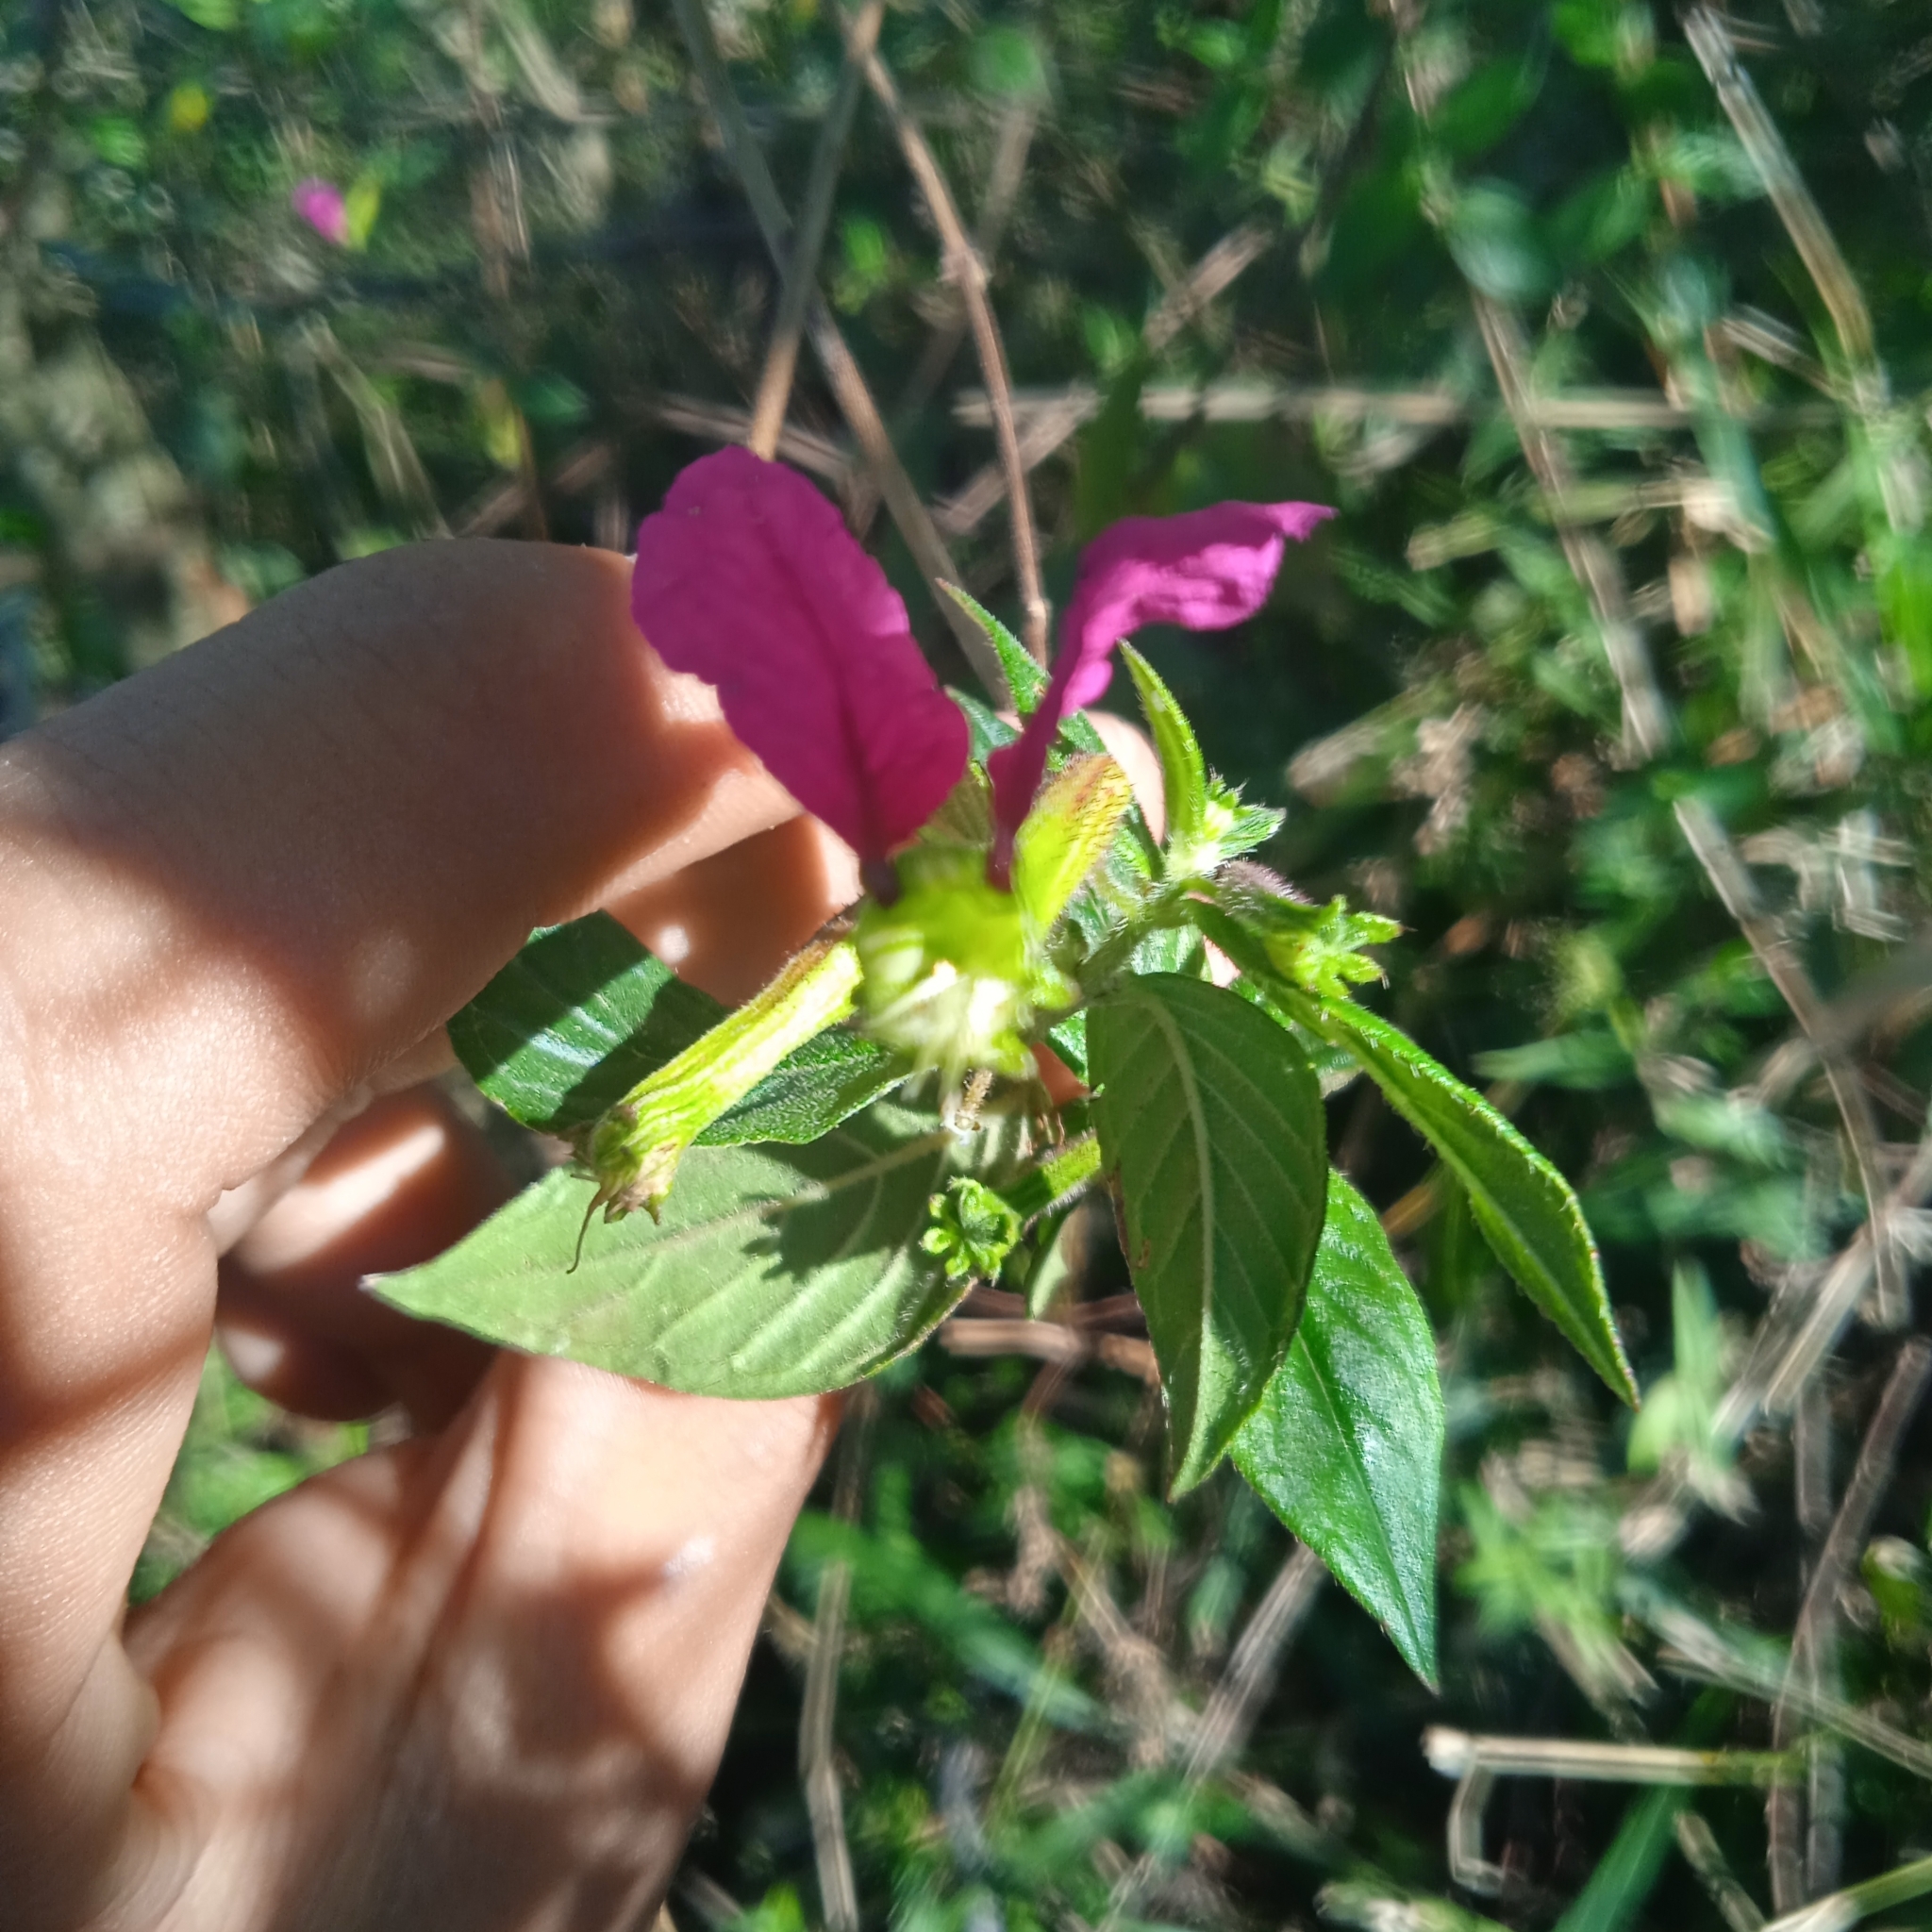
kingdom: Plantae
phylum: Tracheophyta
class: Magnoliopsida
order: Myrtales
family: Lythraceae
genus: Cuphea
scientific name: Cuphea nitidula
